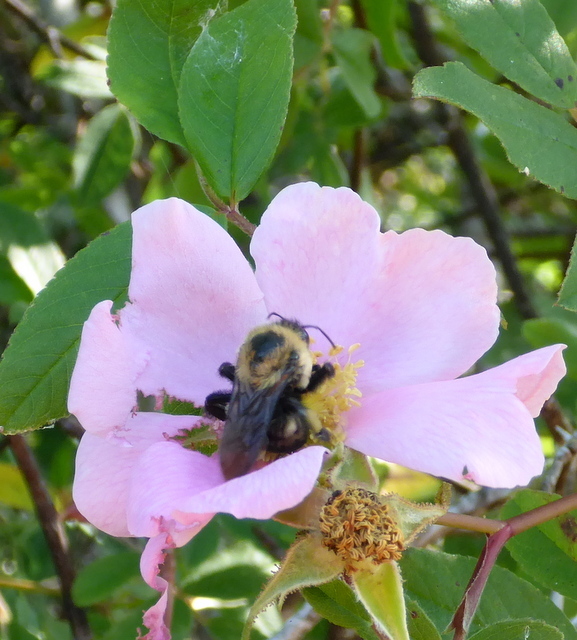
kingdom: Animalia
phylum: Arthropoda
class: Insecta
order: Hymenoptera
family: Apidae
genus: Bombus
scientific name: Bombus griseocollis
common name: Brown-belted bumble bee
